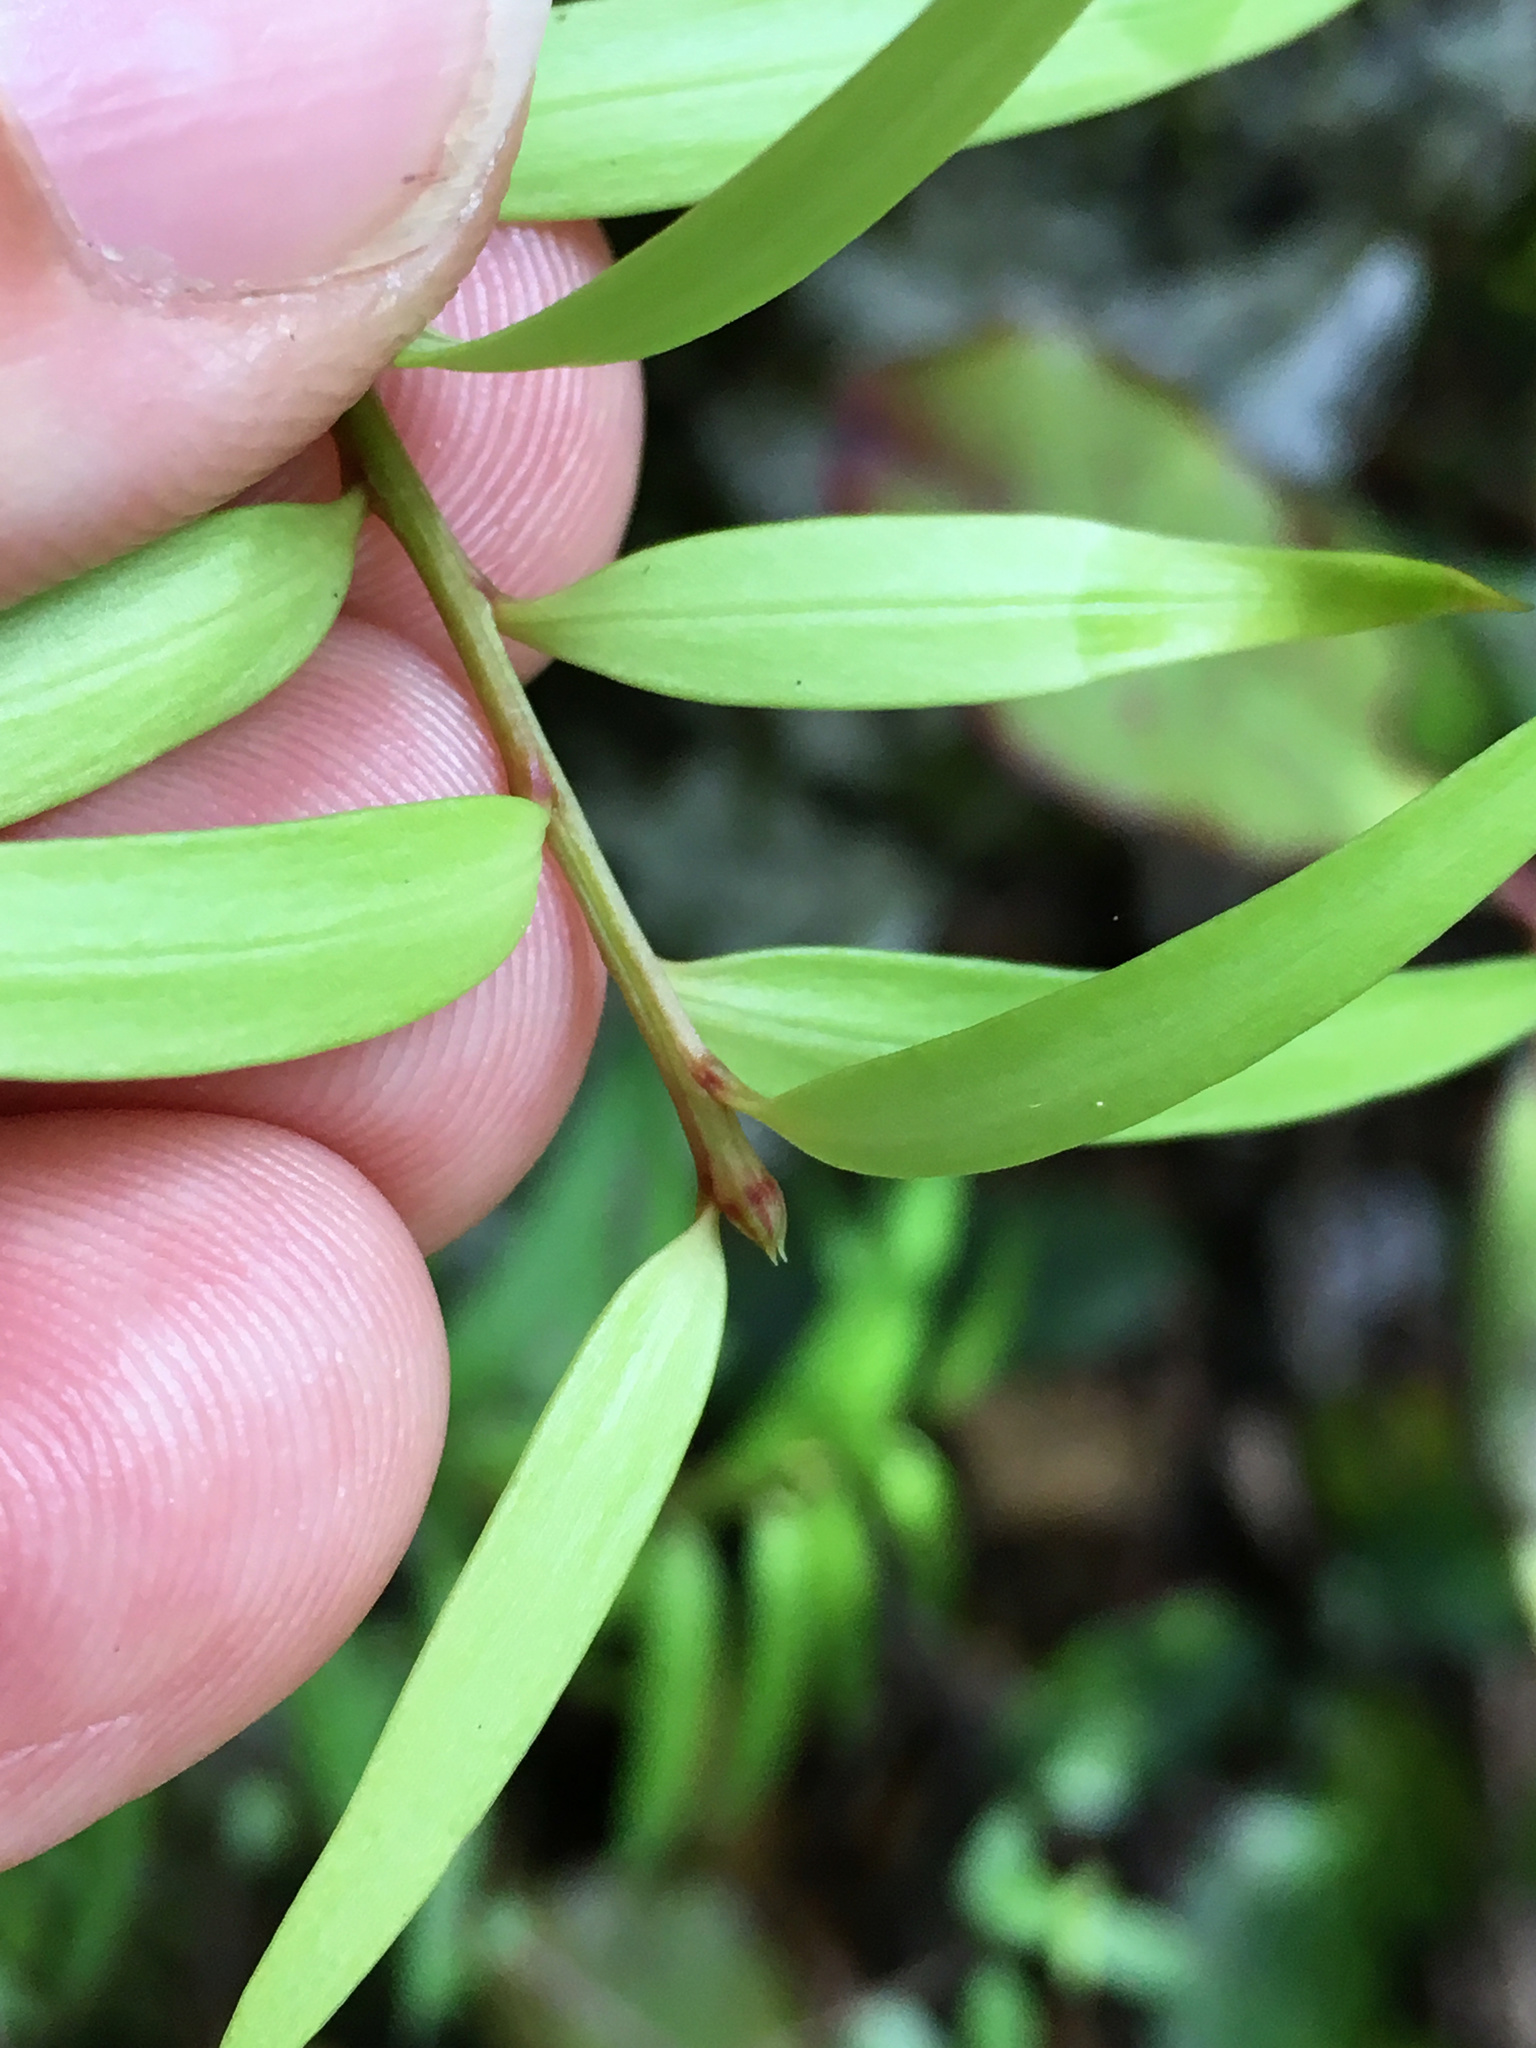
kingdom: Plantae
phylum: Tracheophyta
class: Pinopsida
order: Pinales
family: Podocarpaceae
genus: Podocarpus
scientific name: Podocarpus totara
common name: Totara
